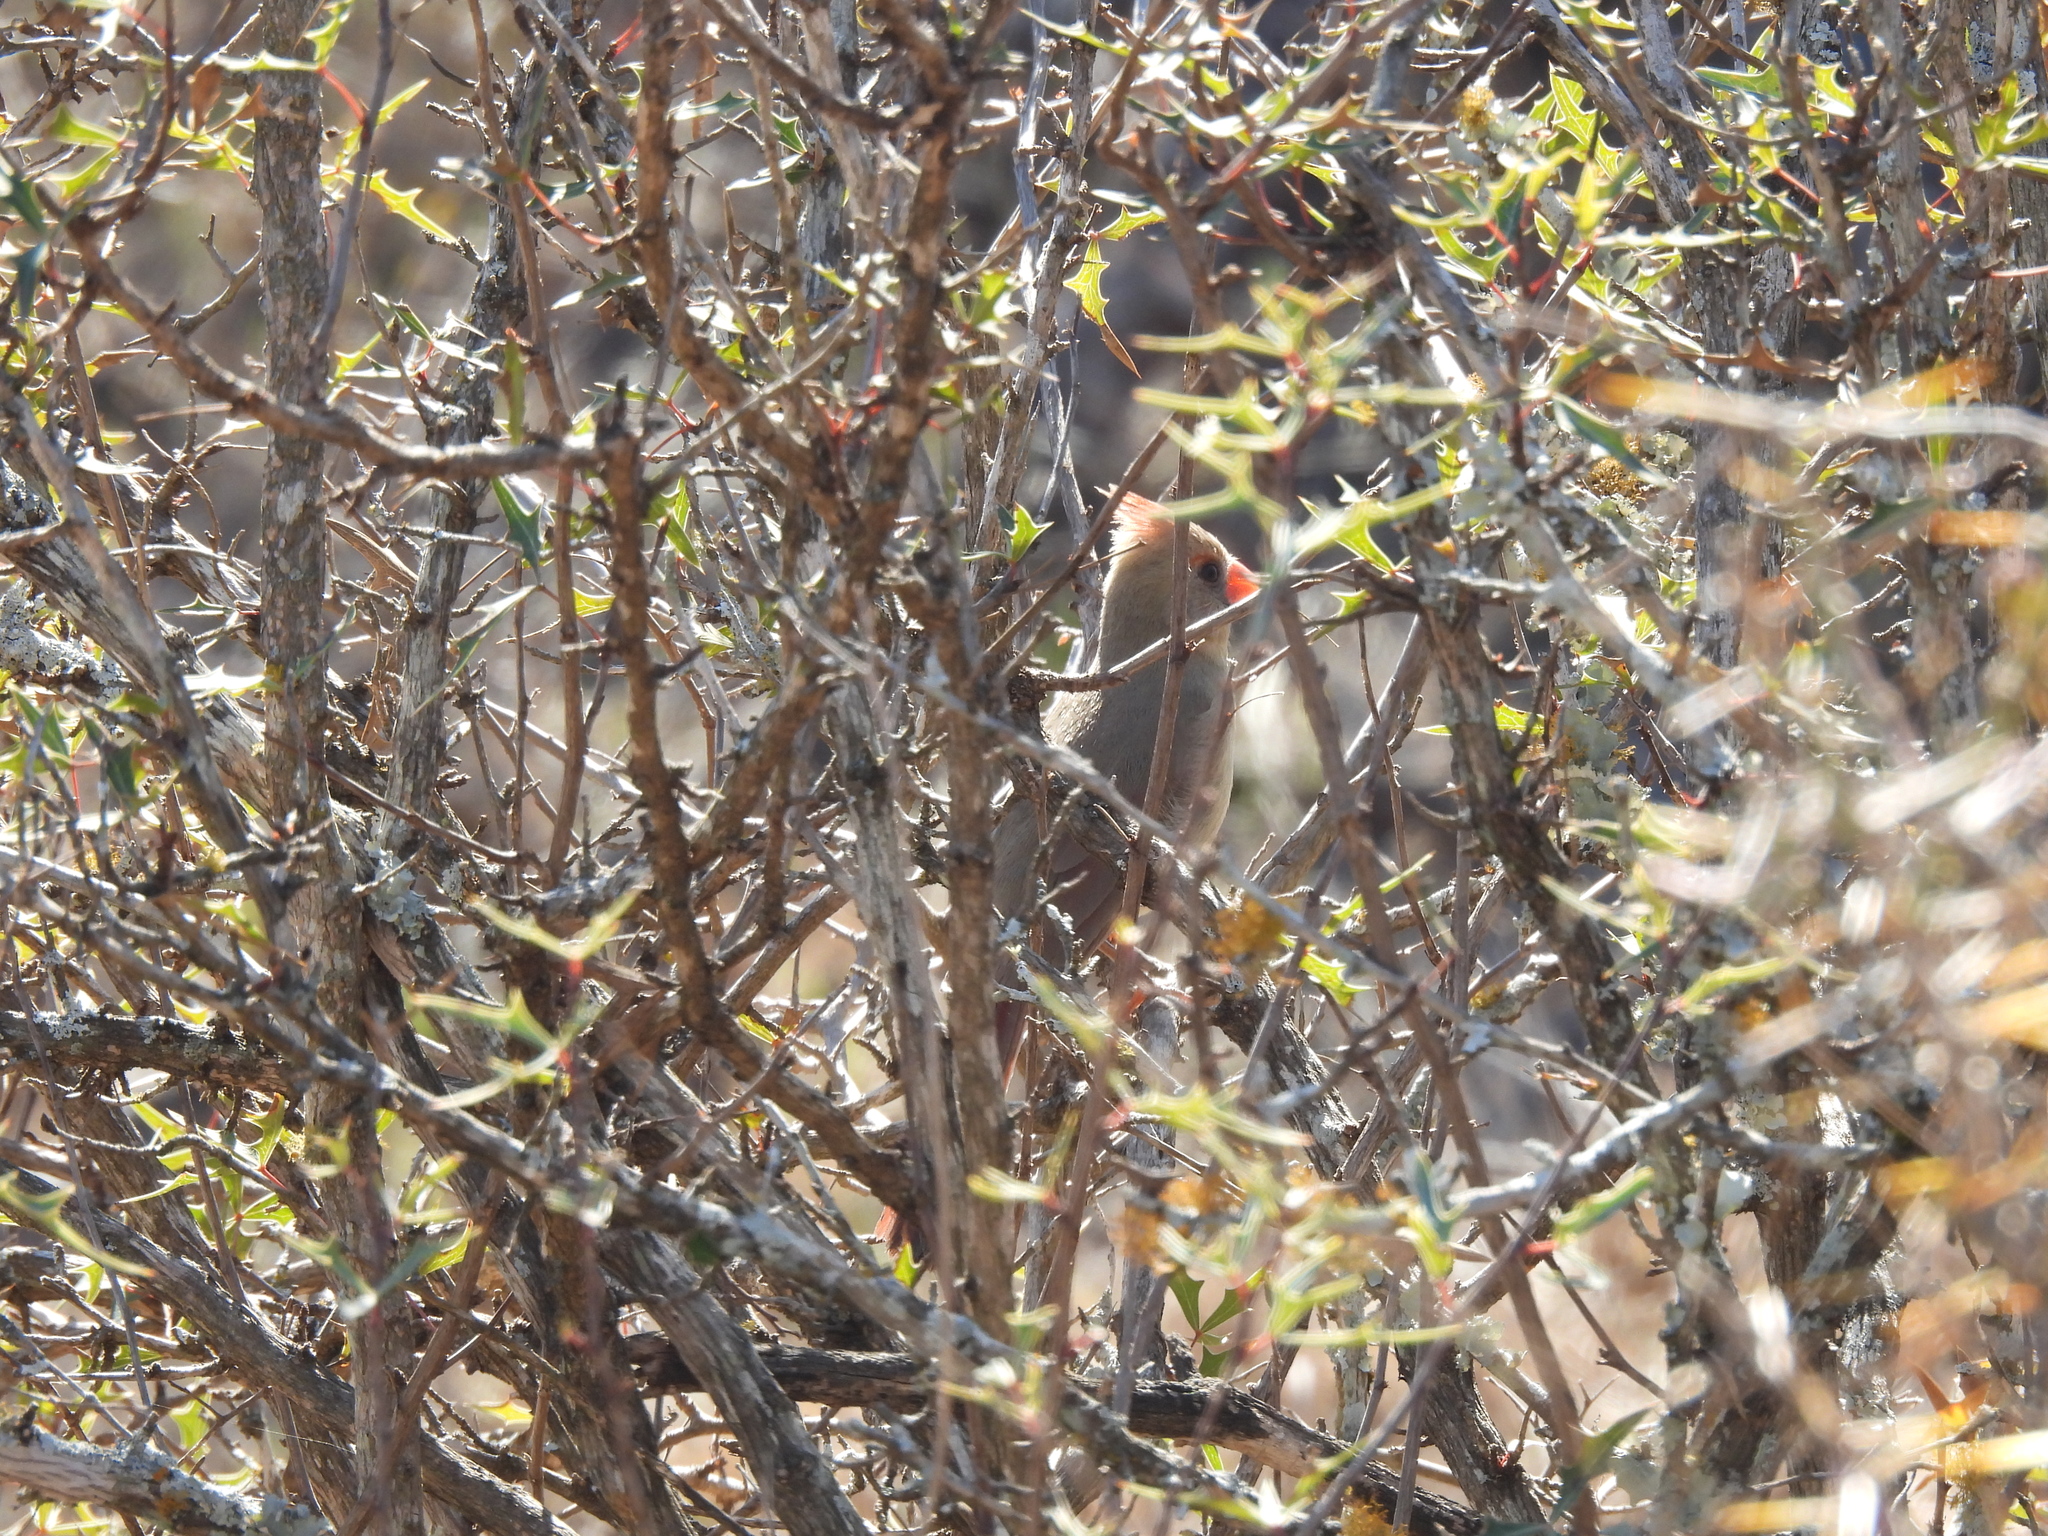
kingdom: Animalia
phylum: Chordata
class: Aves
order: Passeriformes
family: Cardinalidae
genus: Cardinalis
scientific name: Cardinalis cardinalis
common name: Northern cardinal
